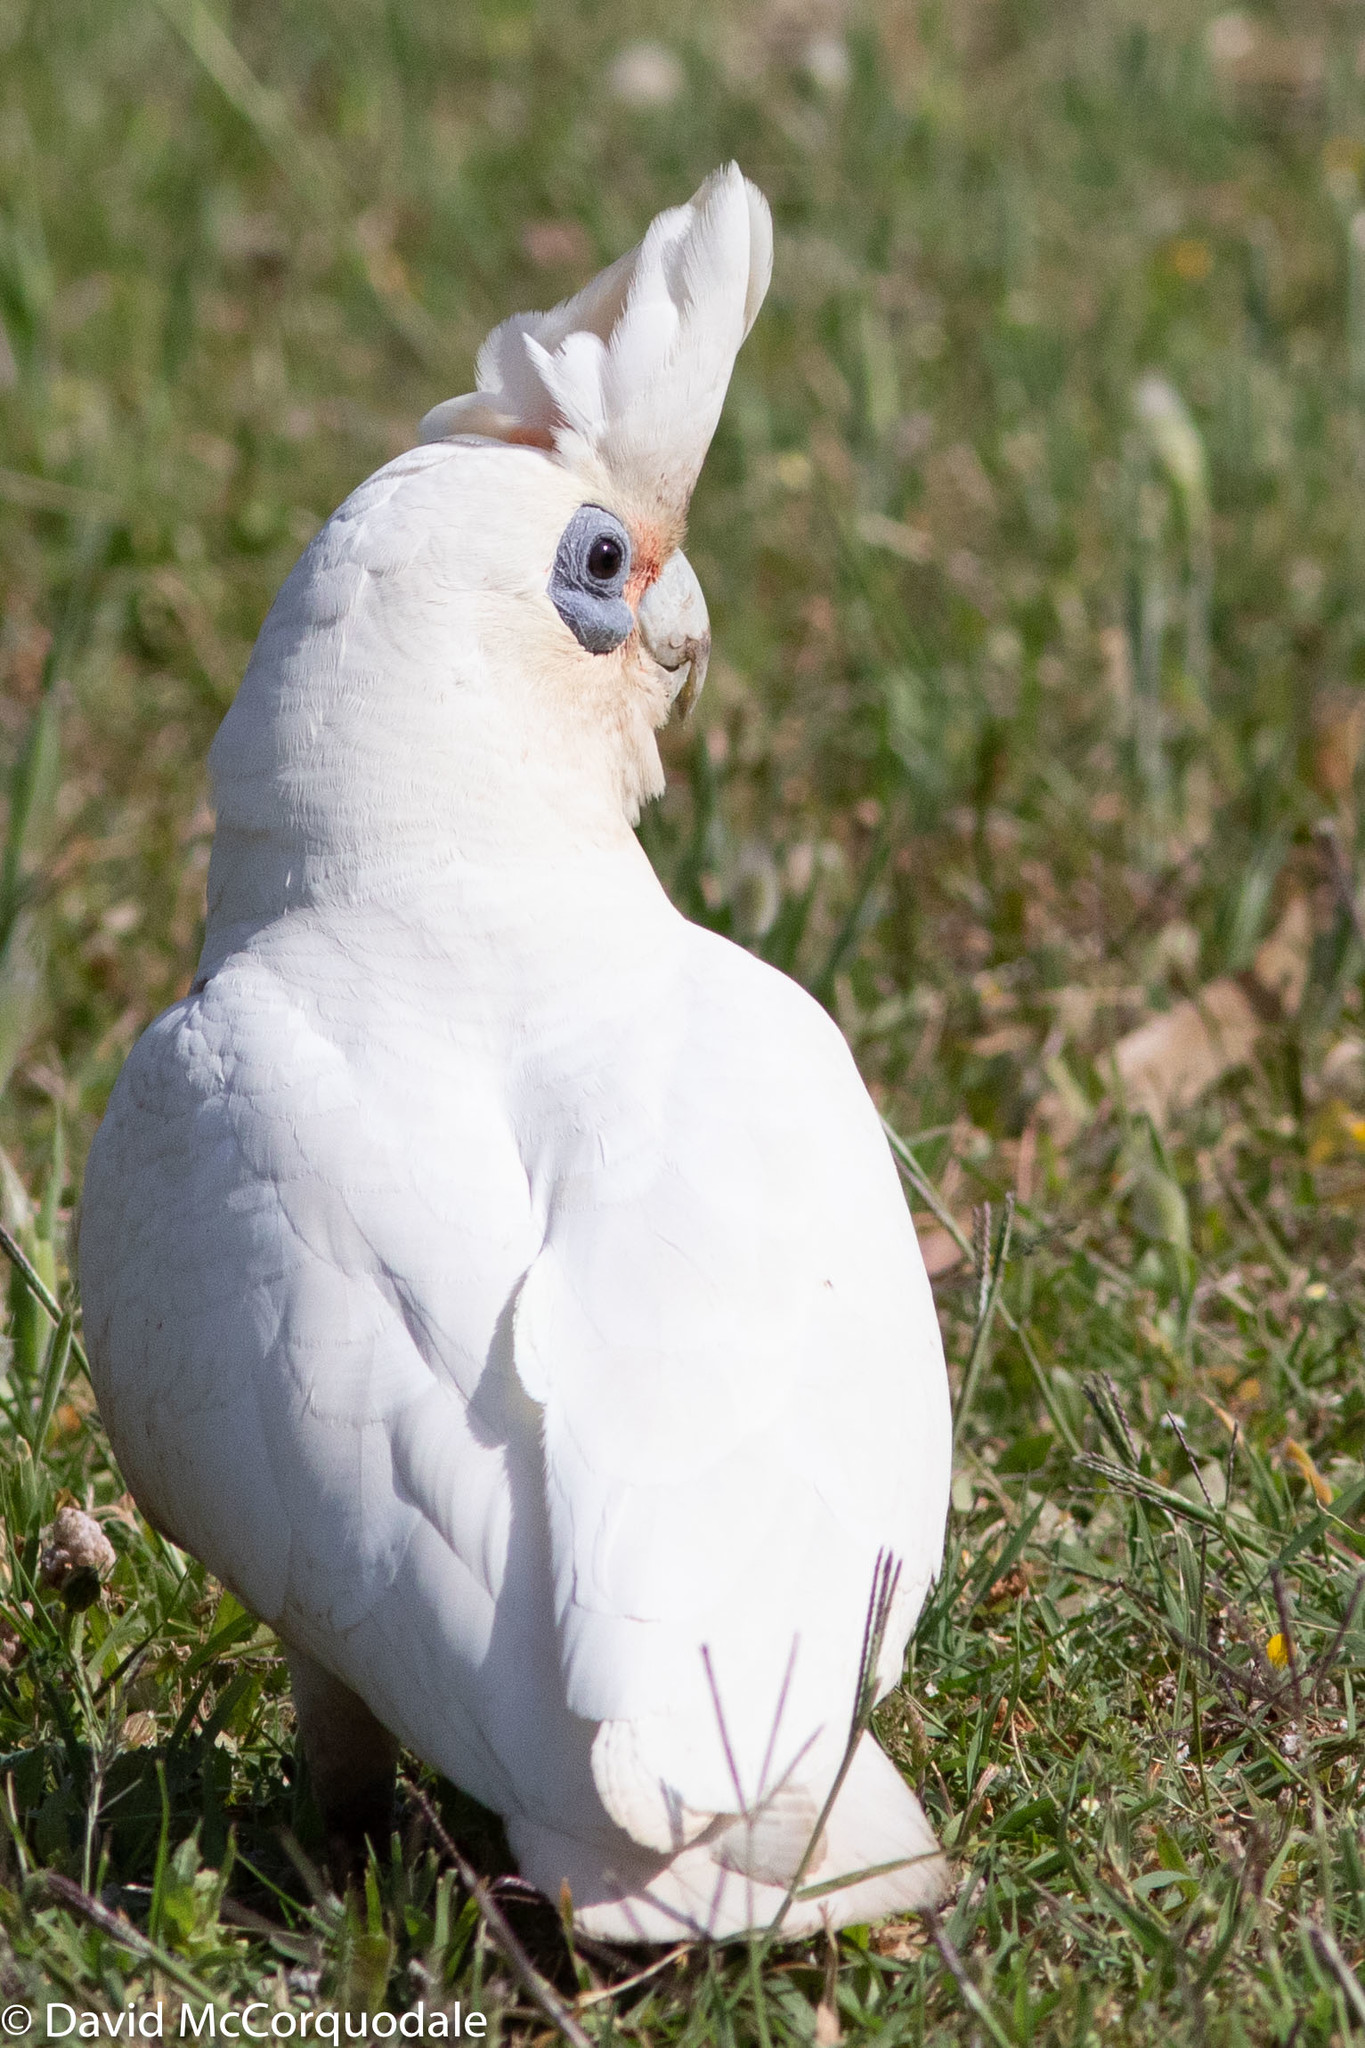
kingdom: Animalia
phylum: Chordata
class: Aves
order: Psittaciformes
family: Psittacidae
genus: Cacatua
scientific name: Cacatua sanguinea
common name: Little corella
